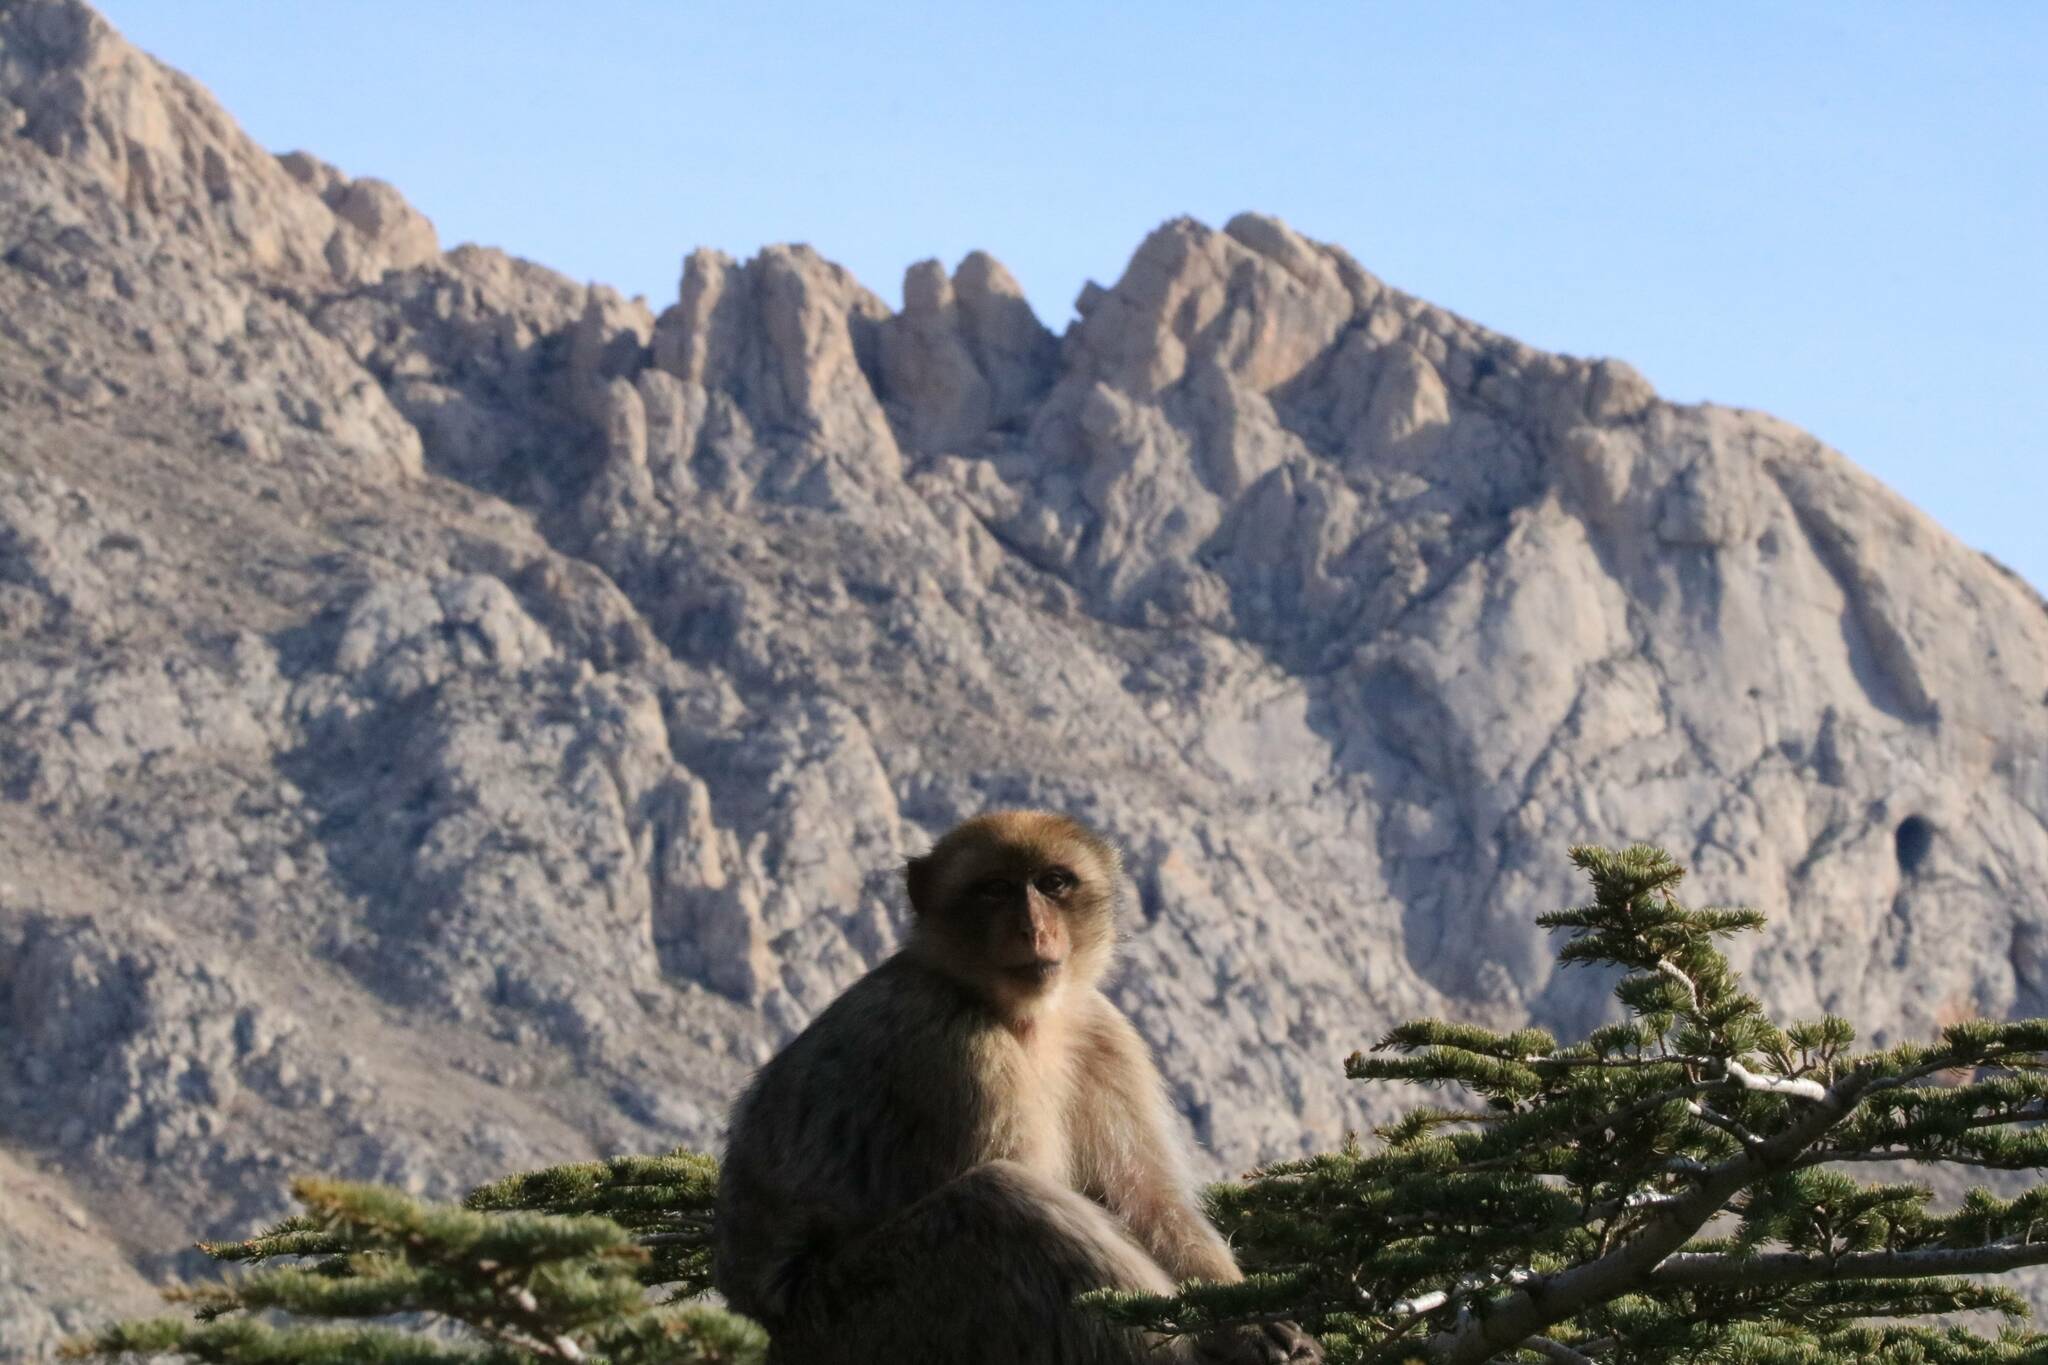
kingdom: Animalia
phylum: Chordata
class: Mammalia
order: Primates
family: Cercopithecidae
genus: Macaca
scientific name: Macaca sylvanus
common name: Barbary macaque
